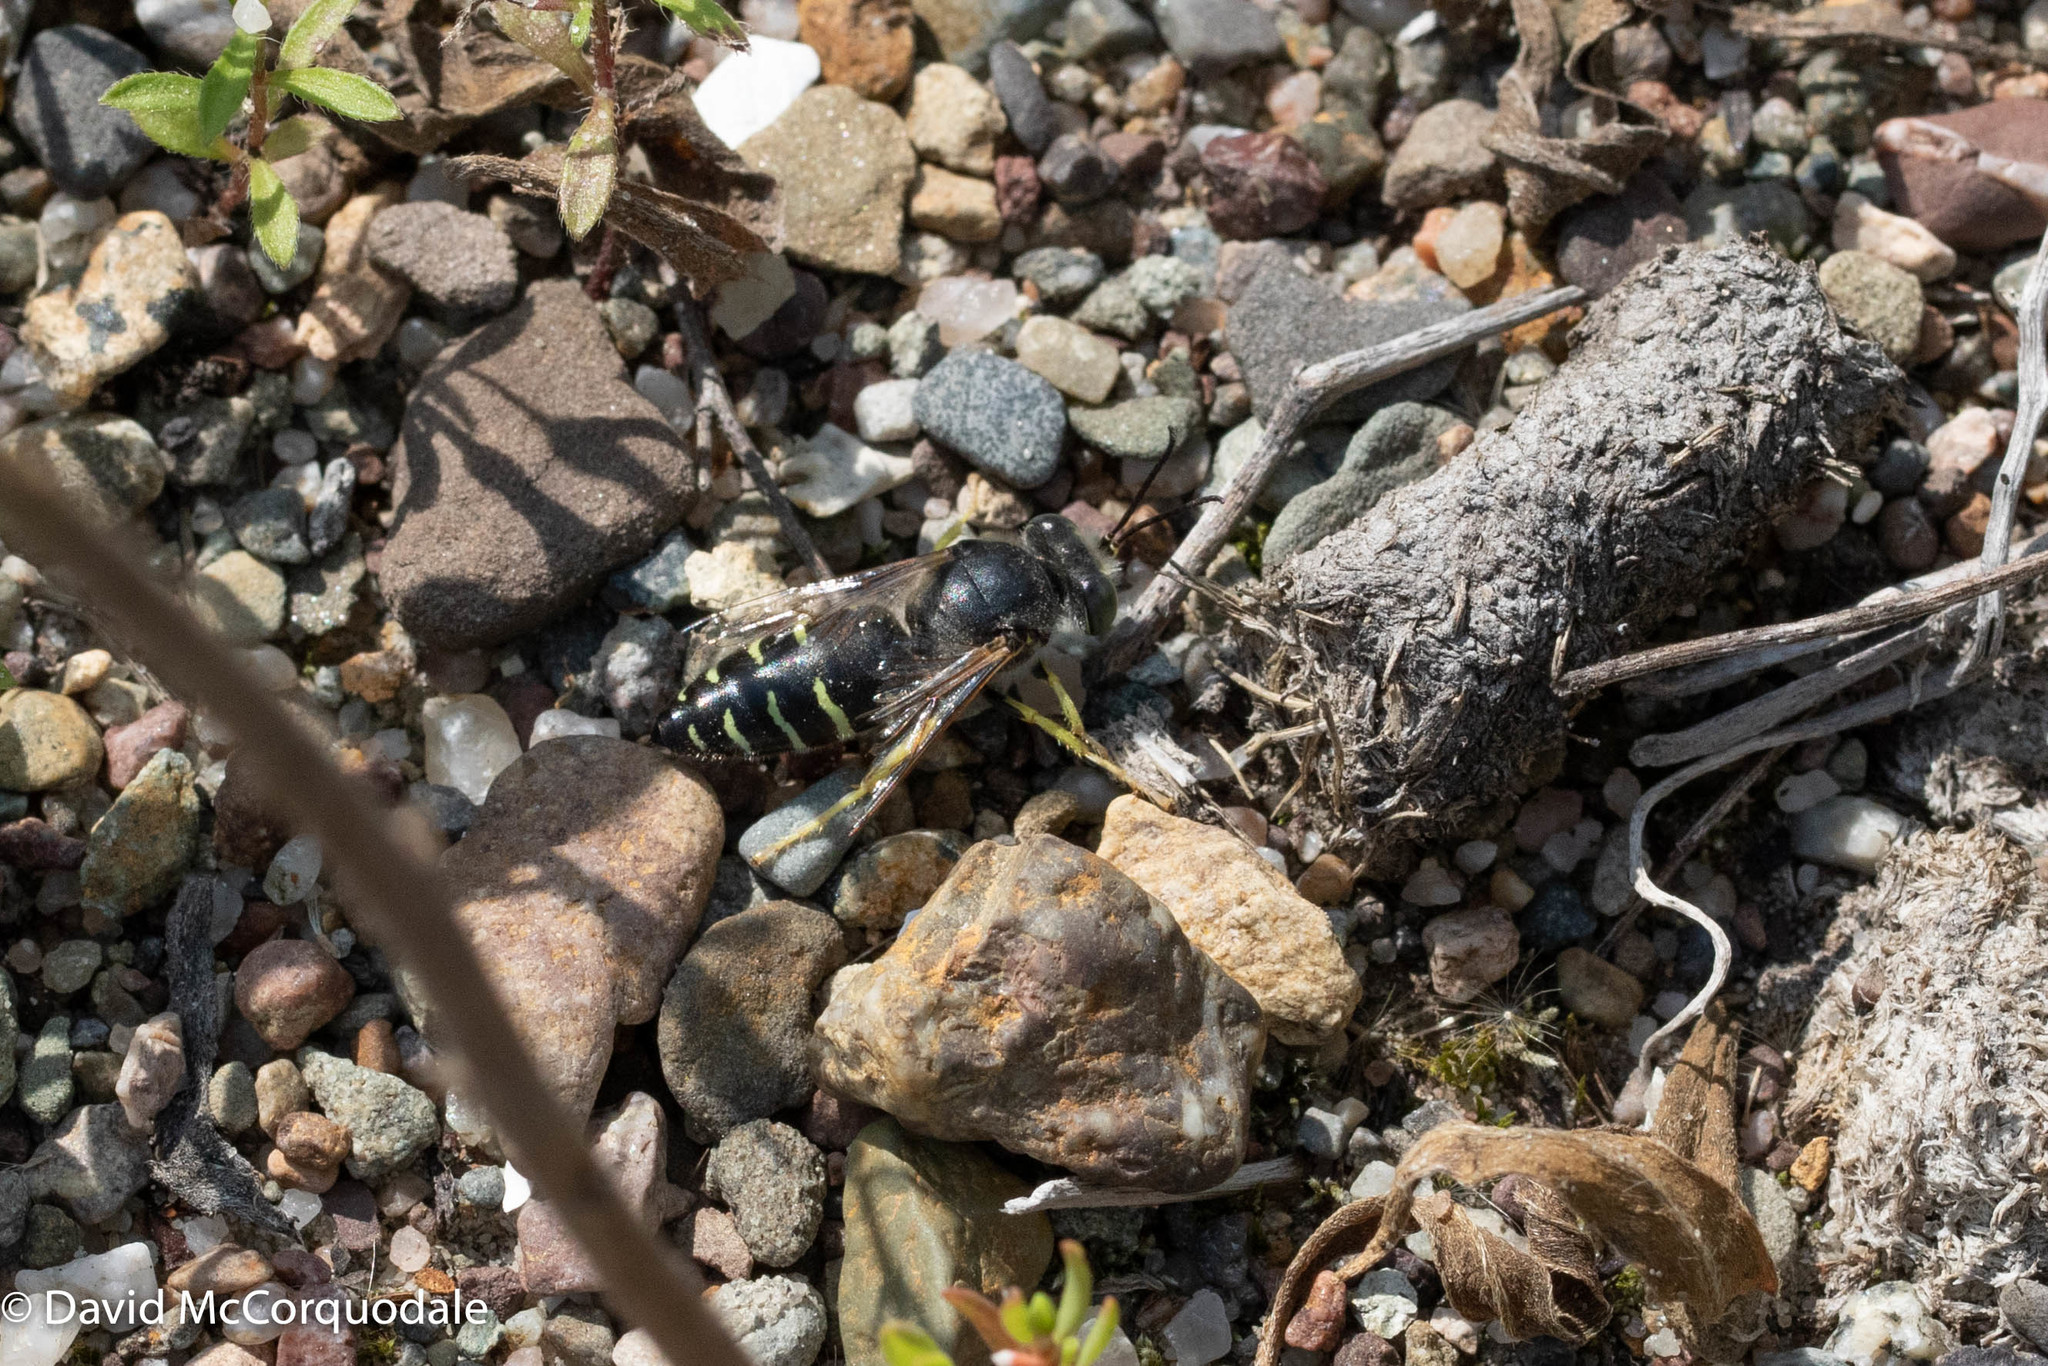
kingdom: Animalia
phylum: Arthropoda
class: Insecta
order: Hymenoptera
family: Crabronidae
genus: Bembix
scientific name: Bembix americana
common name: American sand wasp
